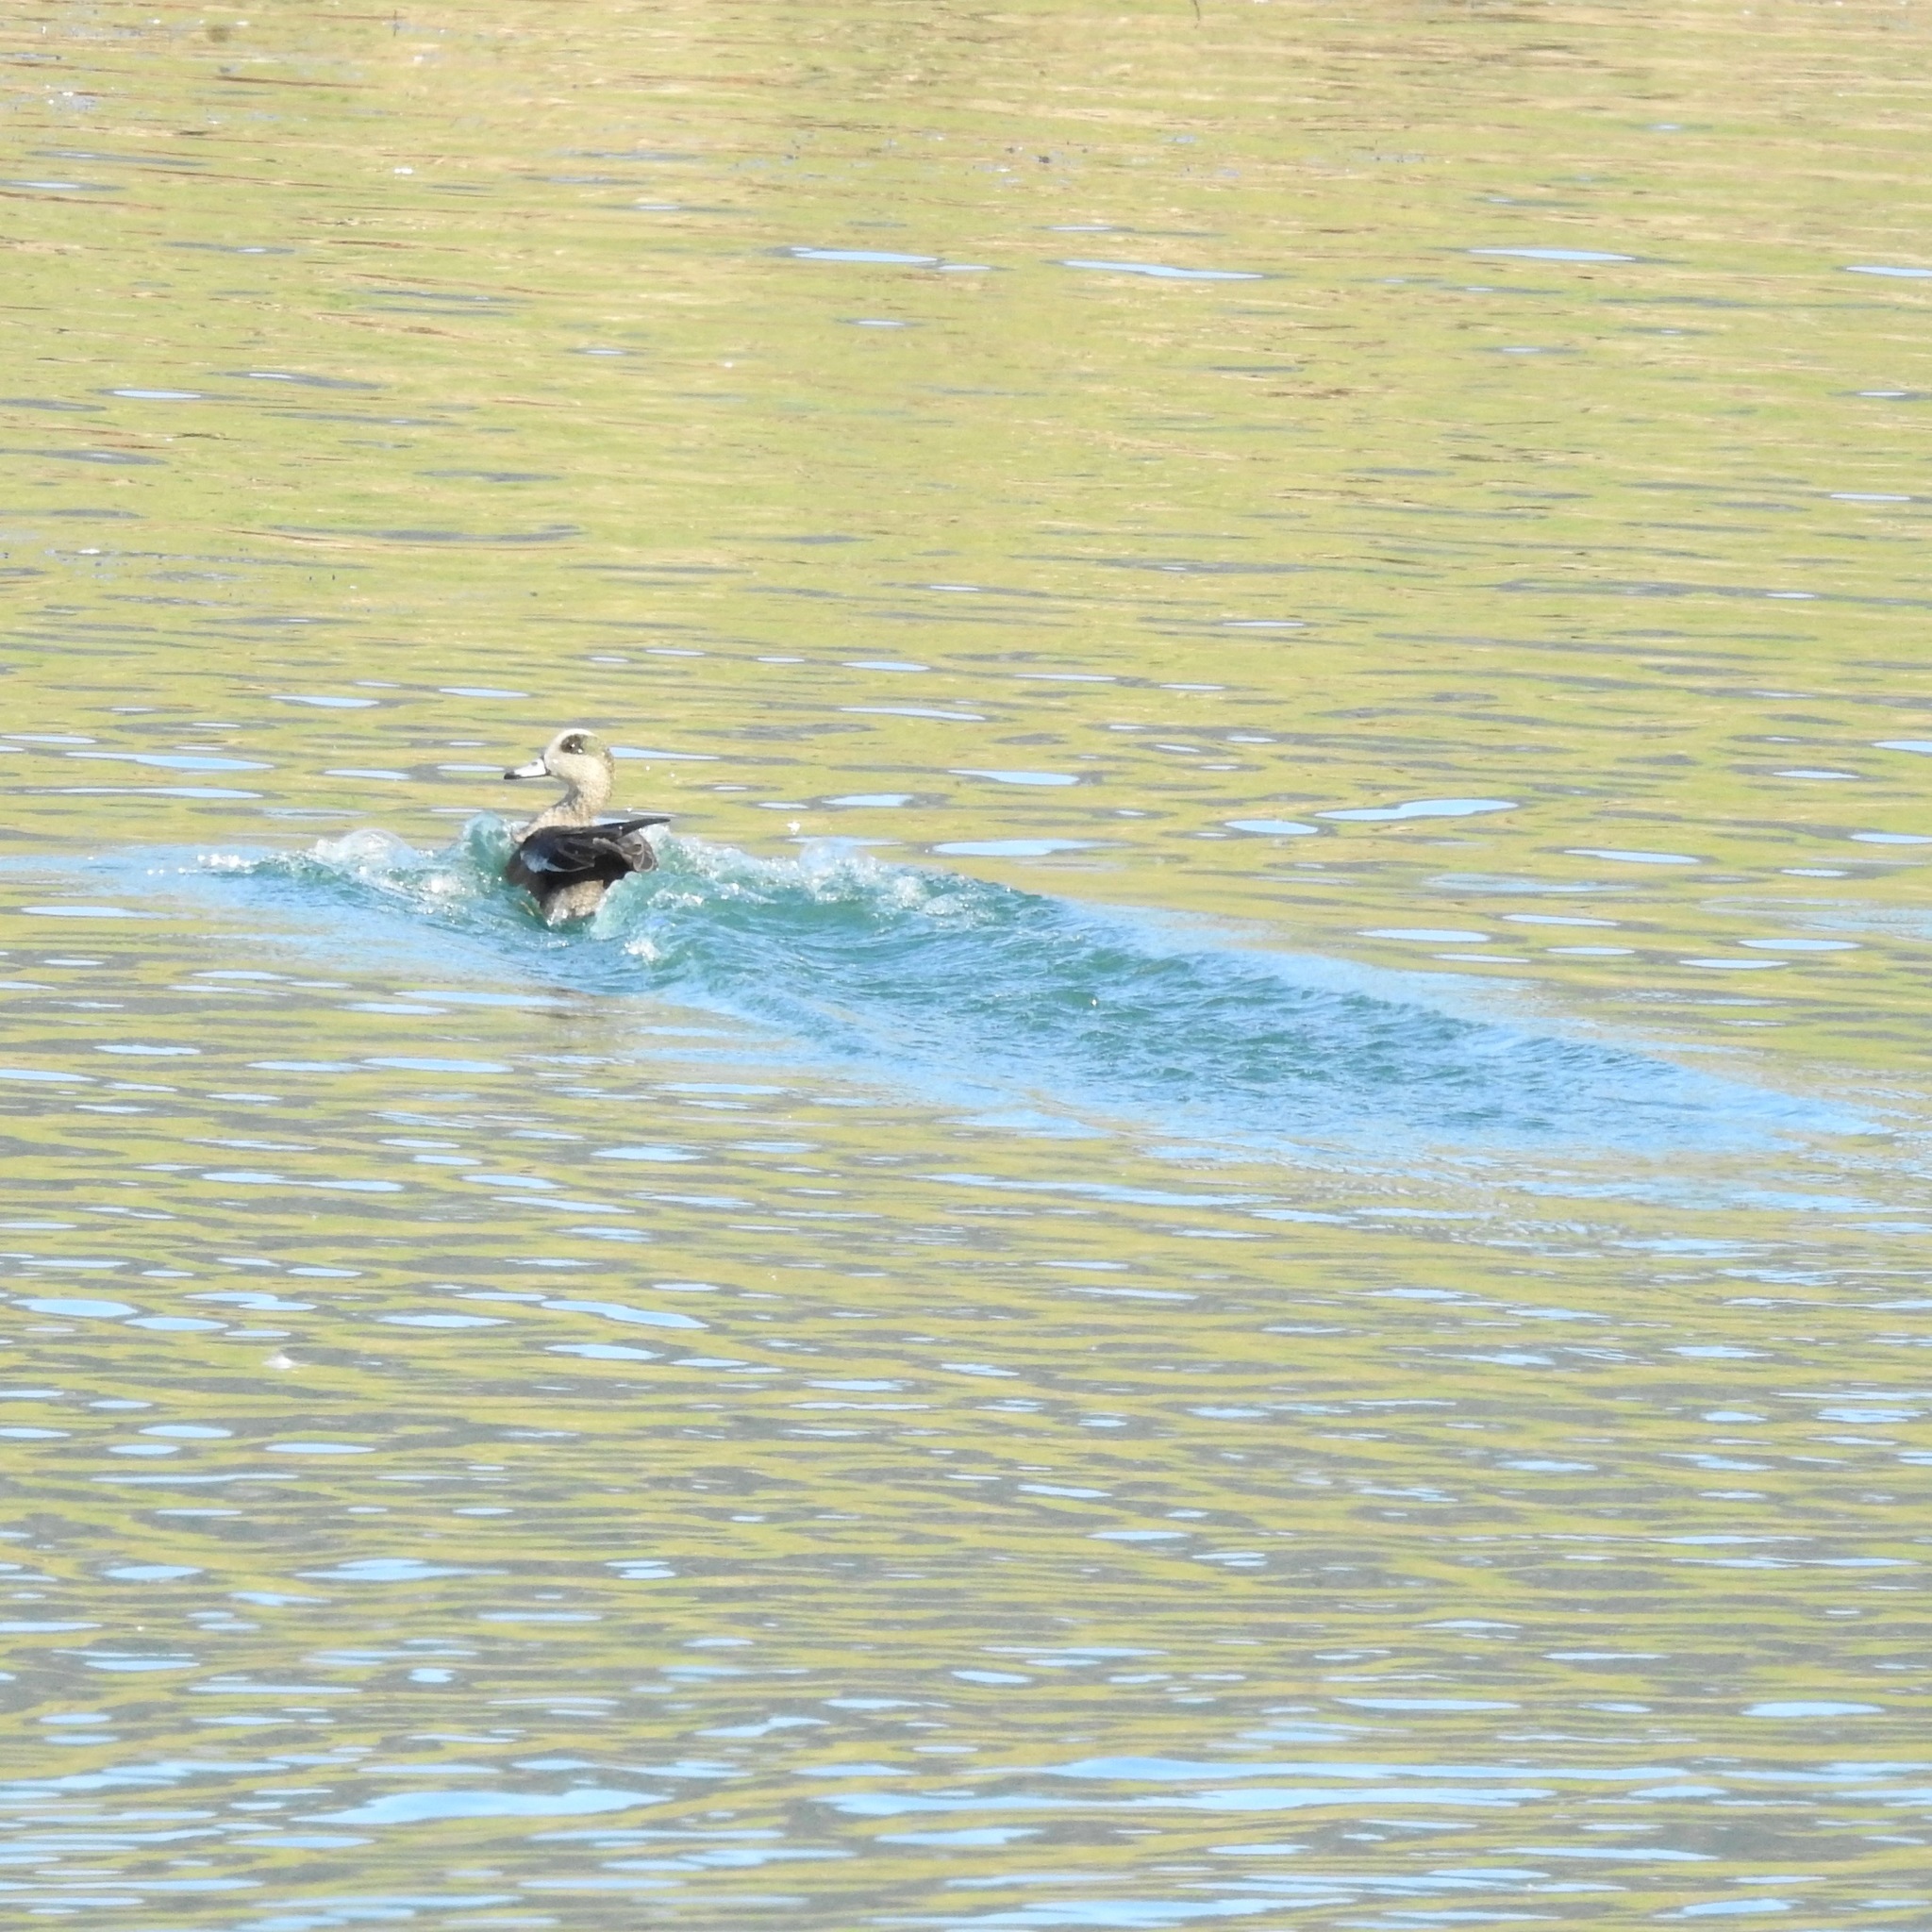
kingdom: Animalia
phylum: Chordata
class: Aves
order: Anseriformes
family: Anatidae
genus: Mareca
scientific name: Mareca americana
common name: American wigeon
